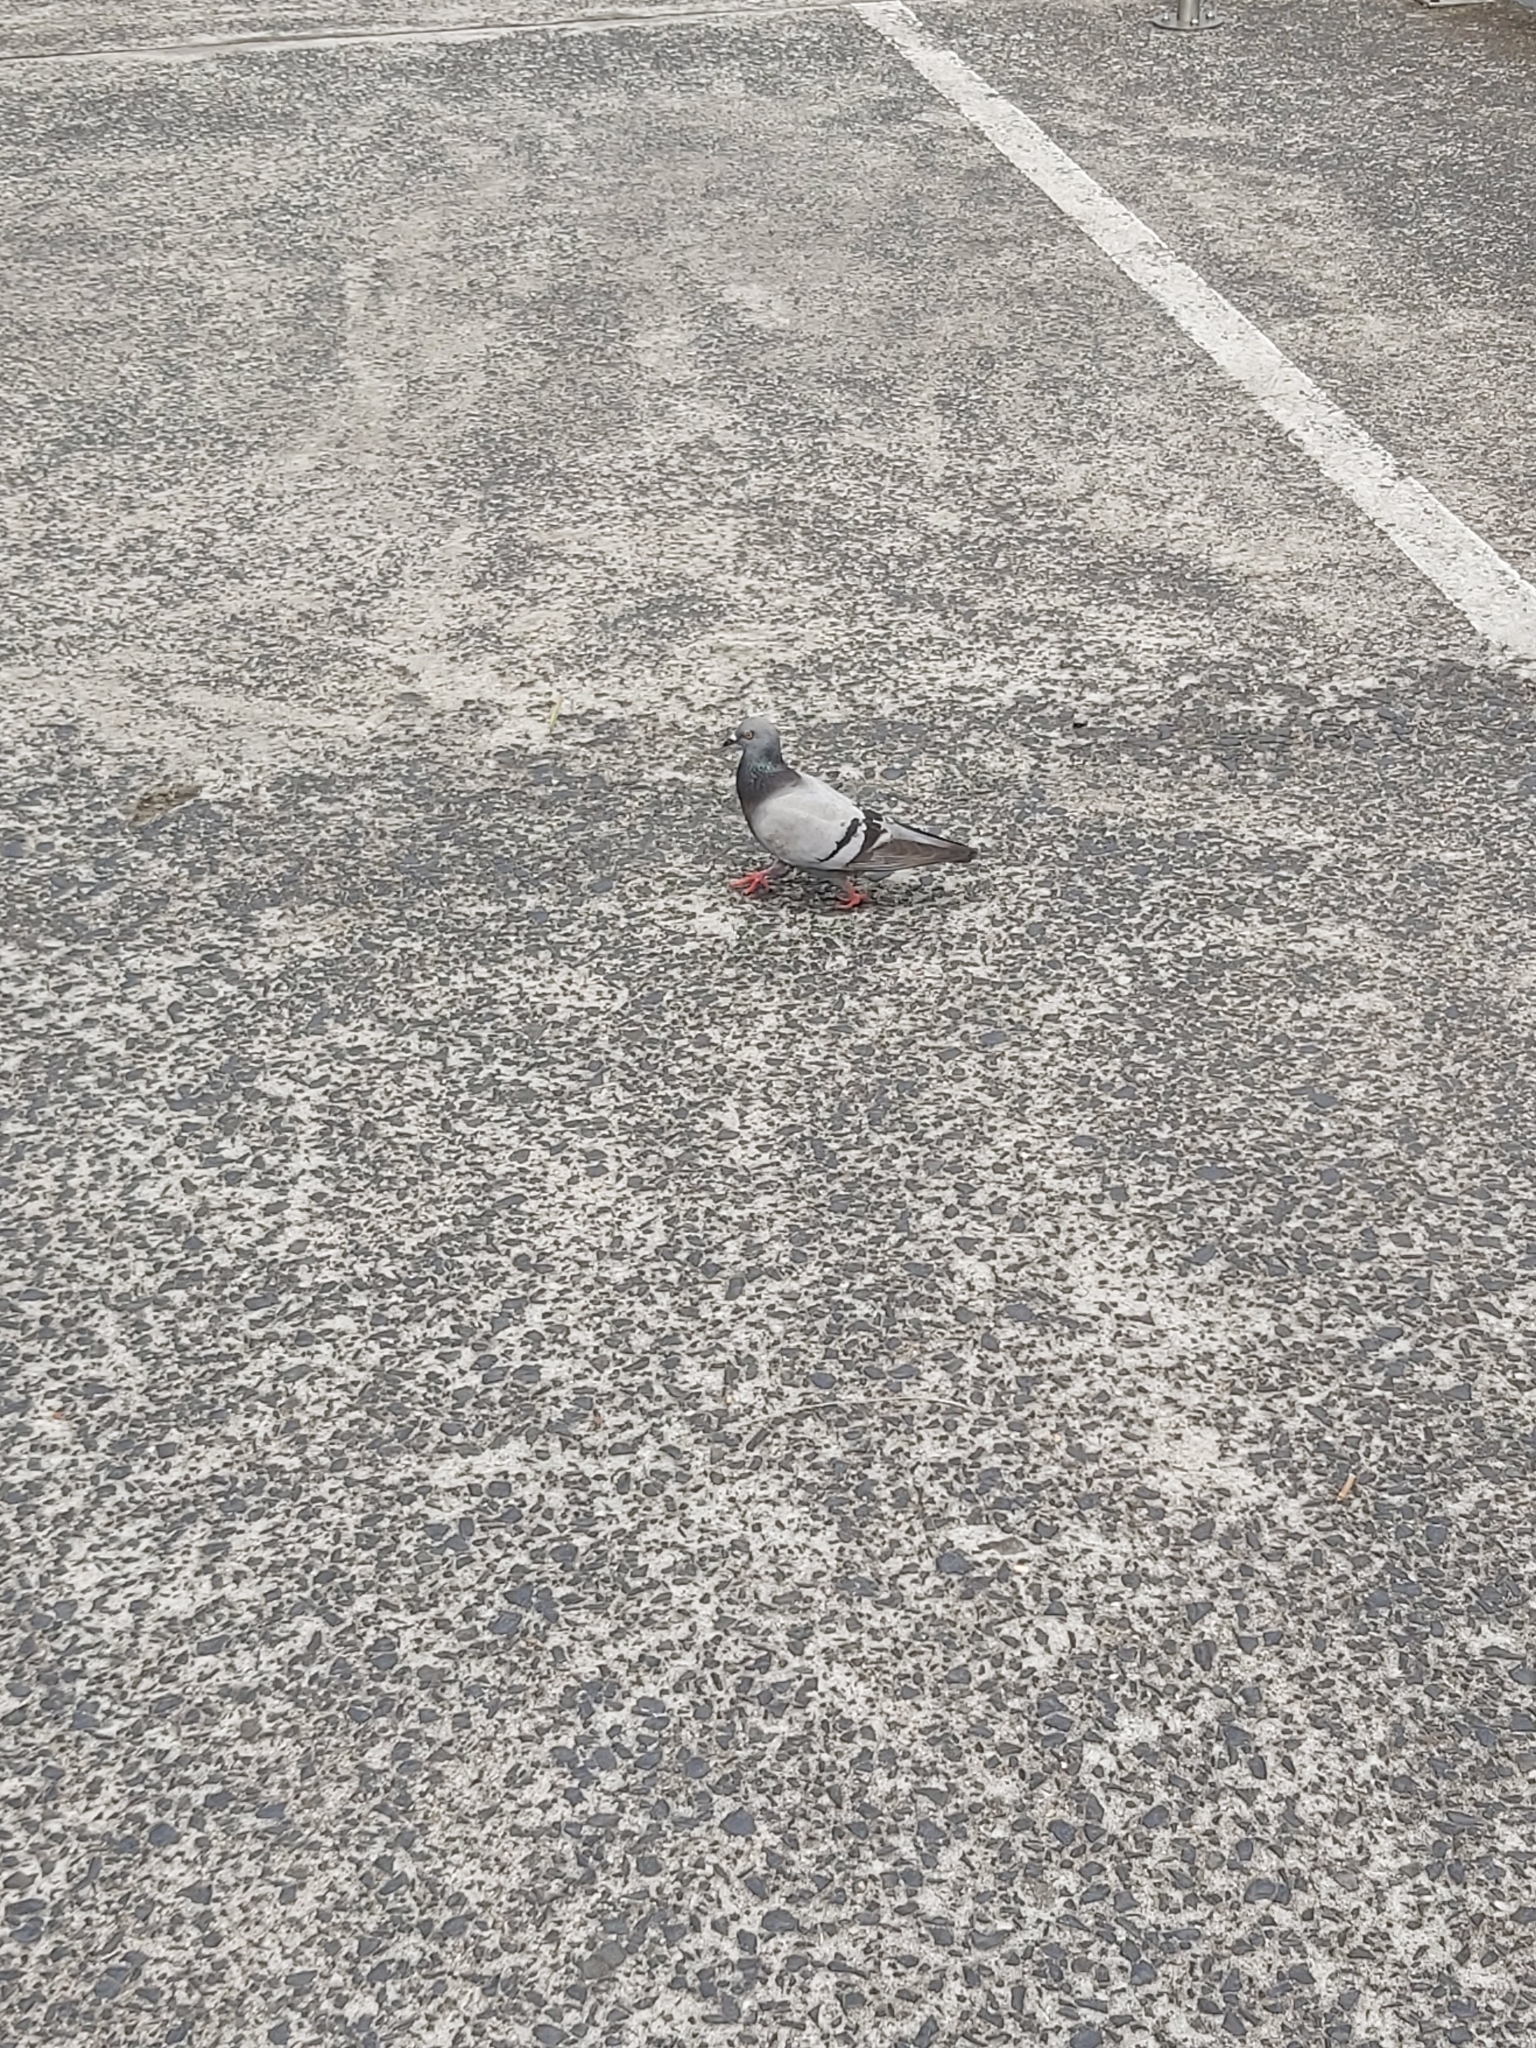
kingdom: Animalia
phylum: Chordata
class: Aves
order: Columbiformes
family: Columbidae
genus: Columba
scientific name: Columba livia
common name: Rock pigeon
